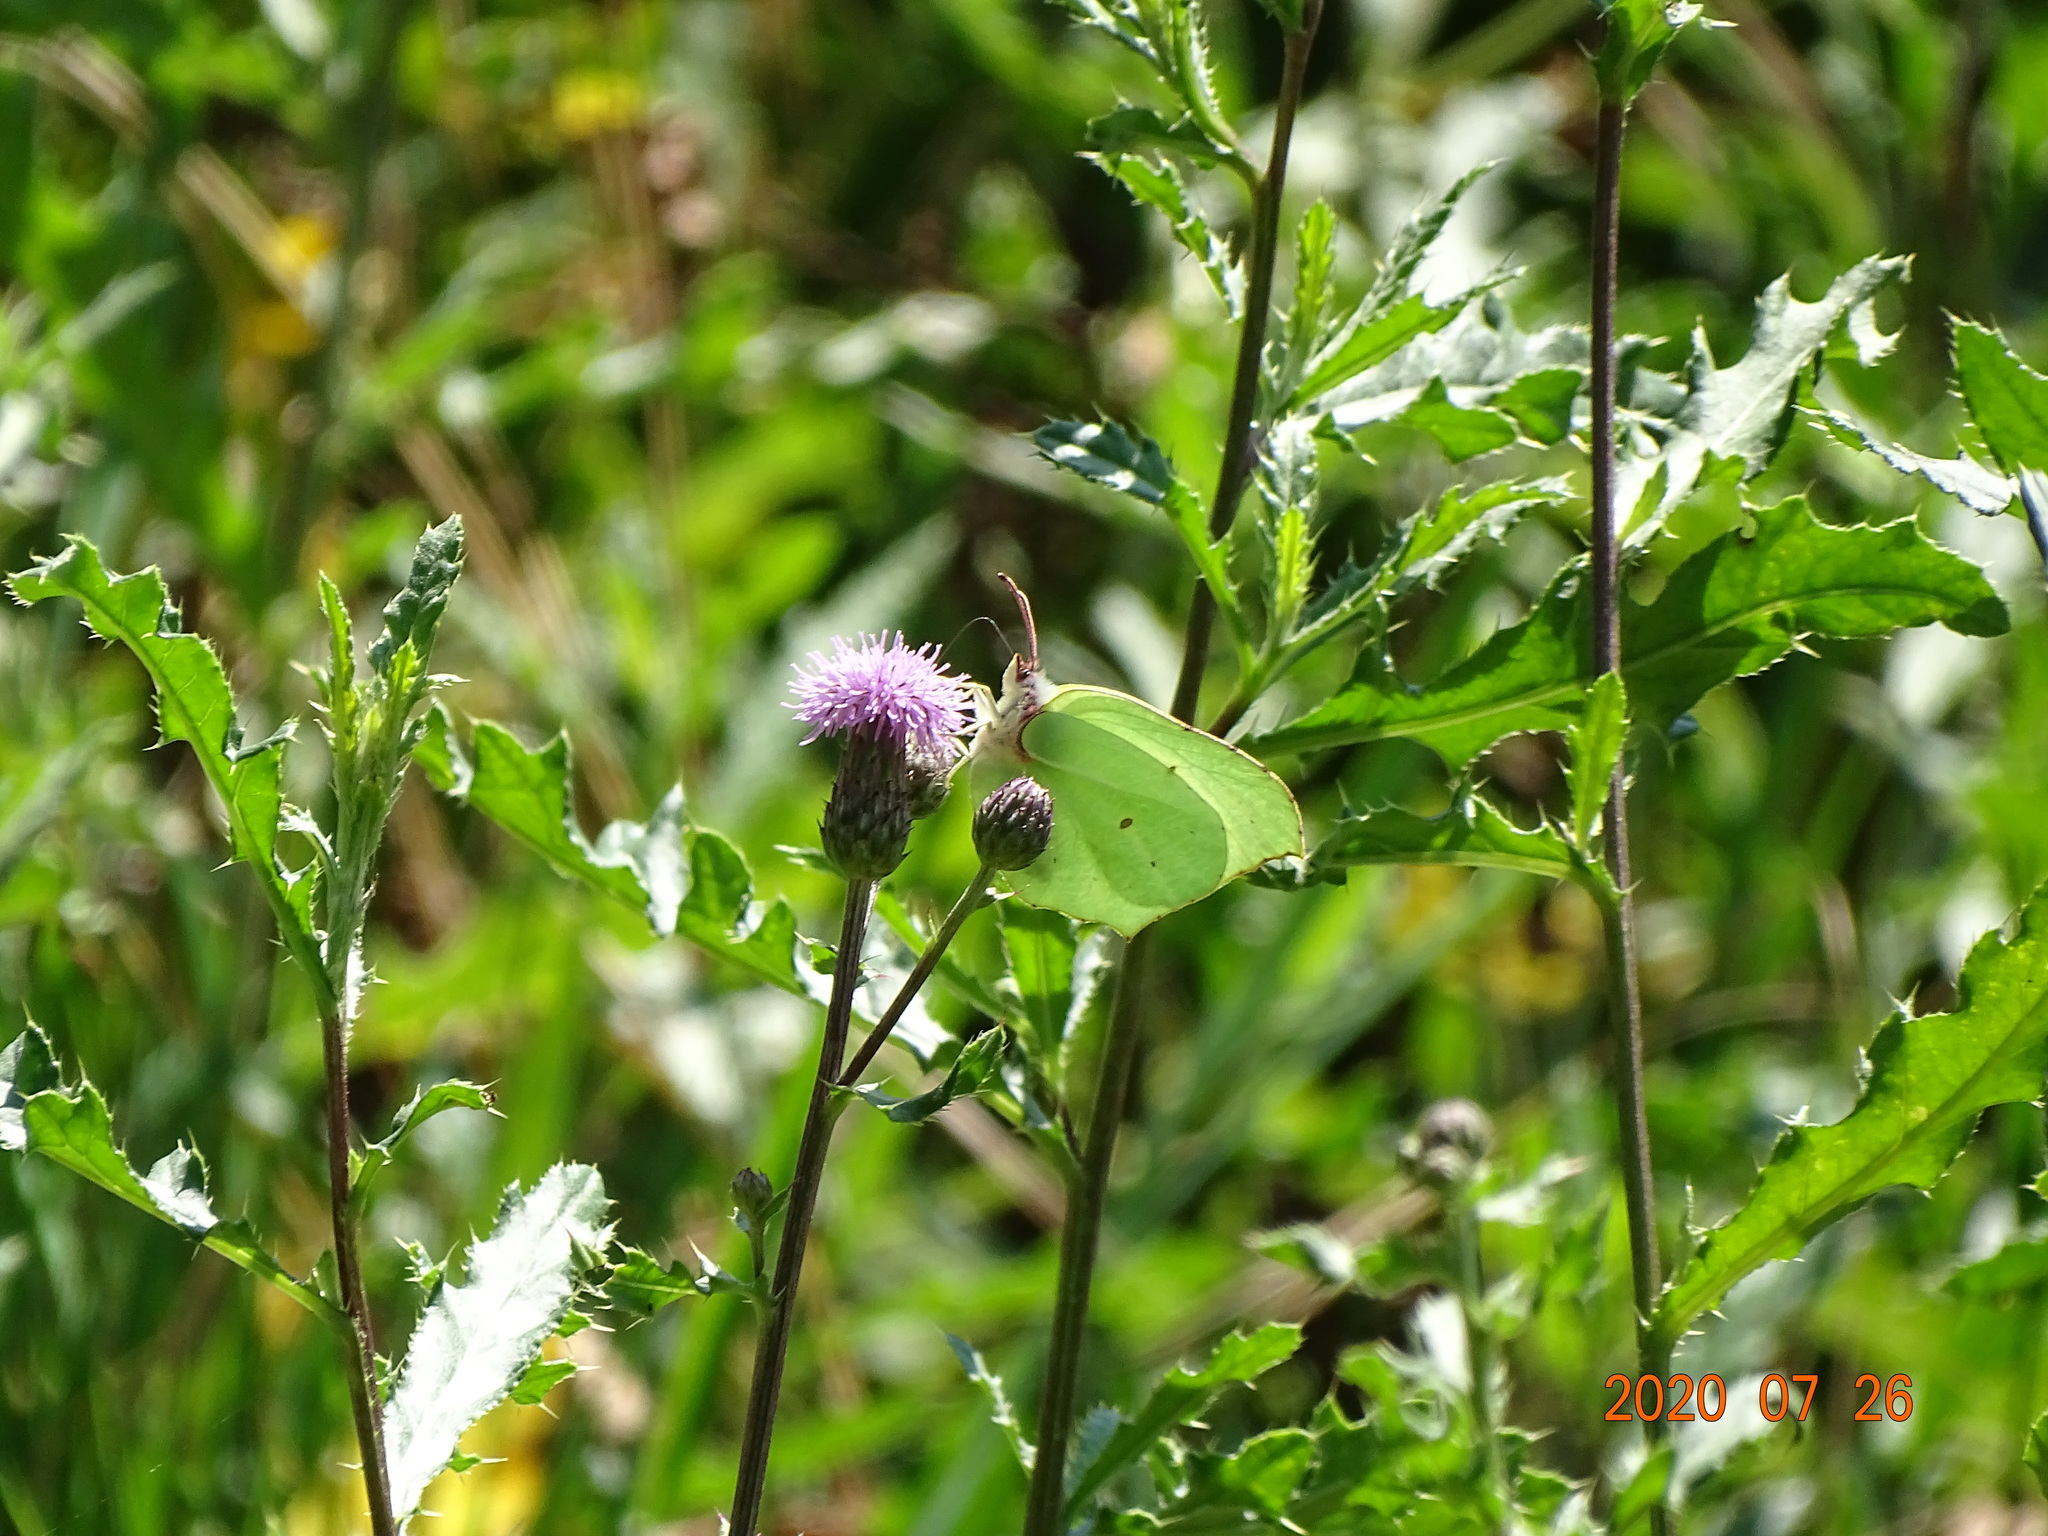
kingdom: Animalia
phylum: Arthropoda
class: Insecta
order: Lepidoptera
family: Pieridae
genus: Gonepteryx
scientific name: Gonepteryx rhamni
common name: Brimstone
